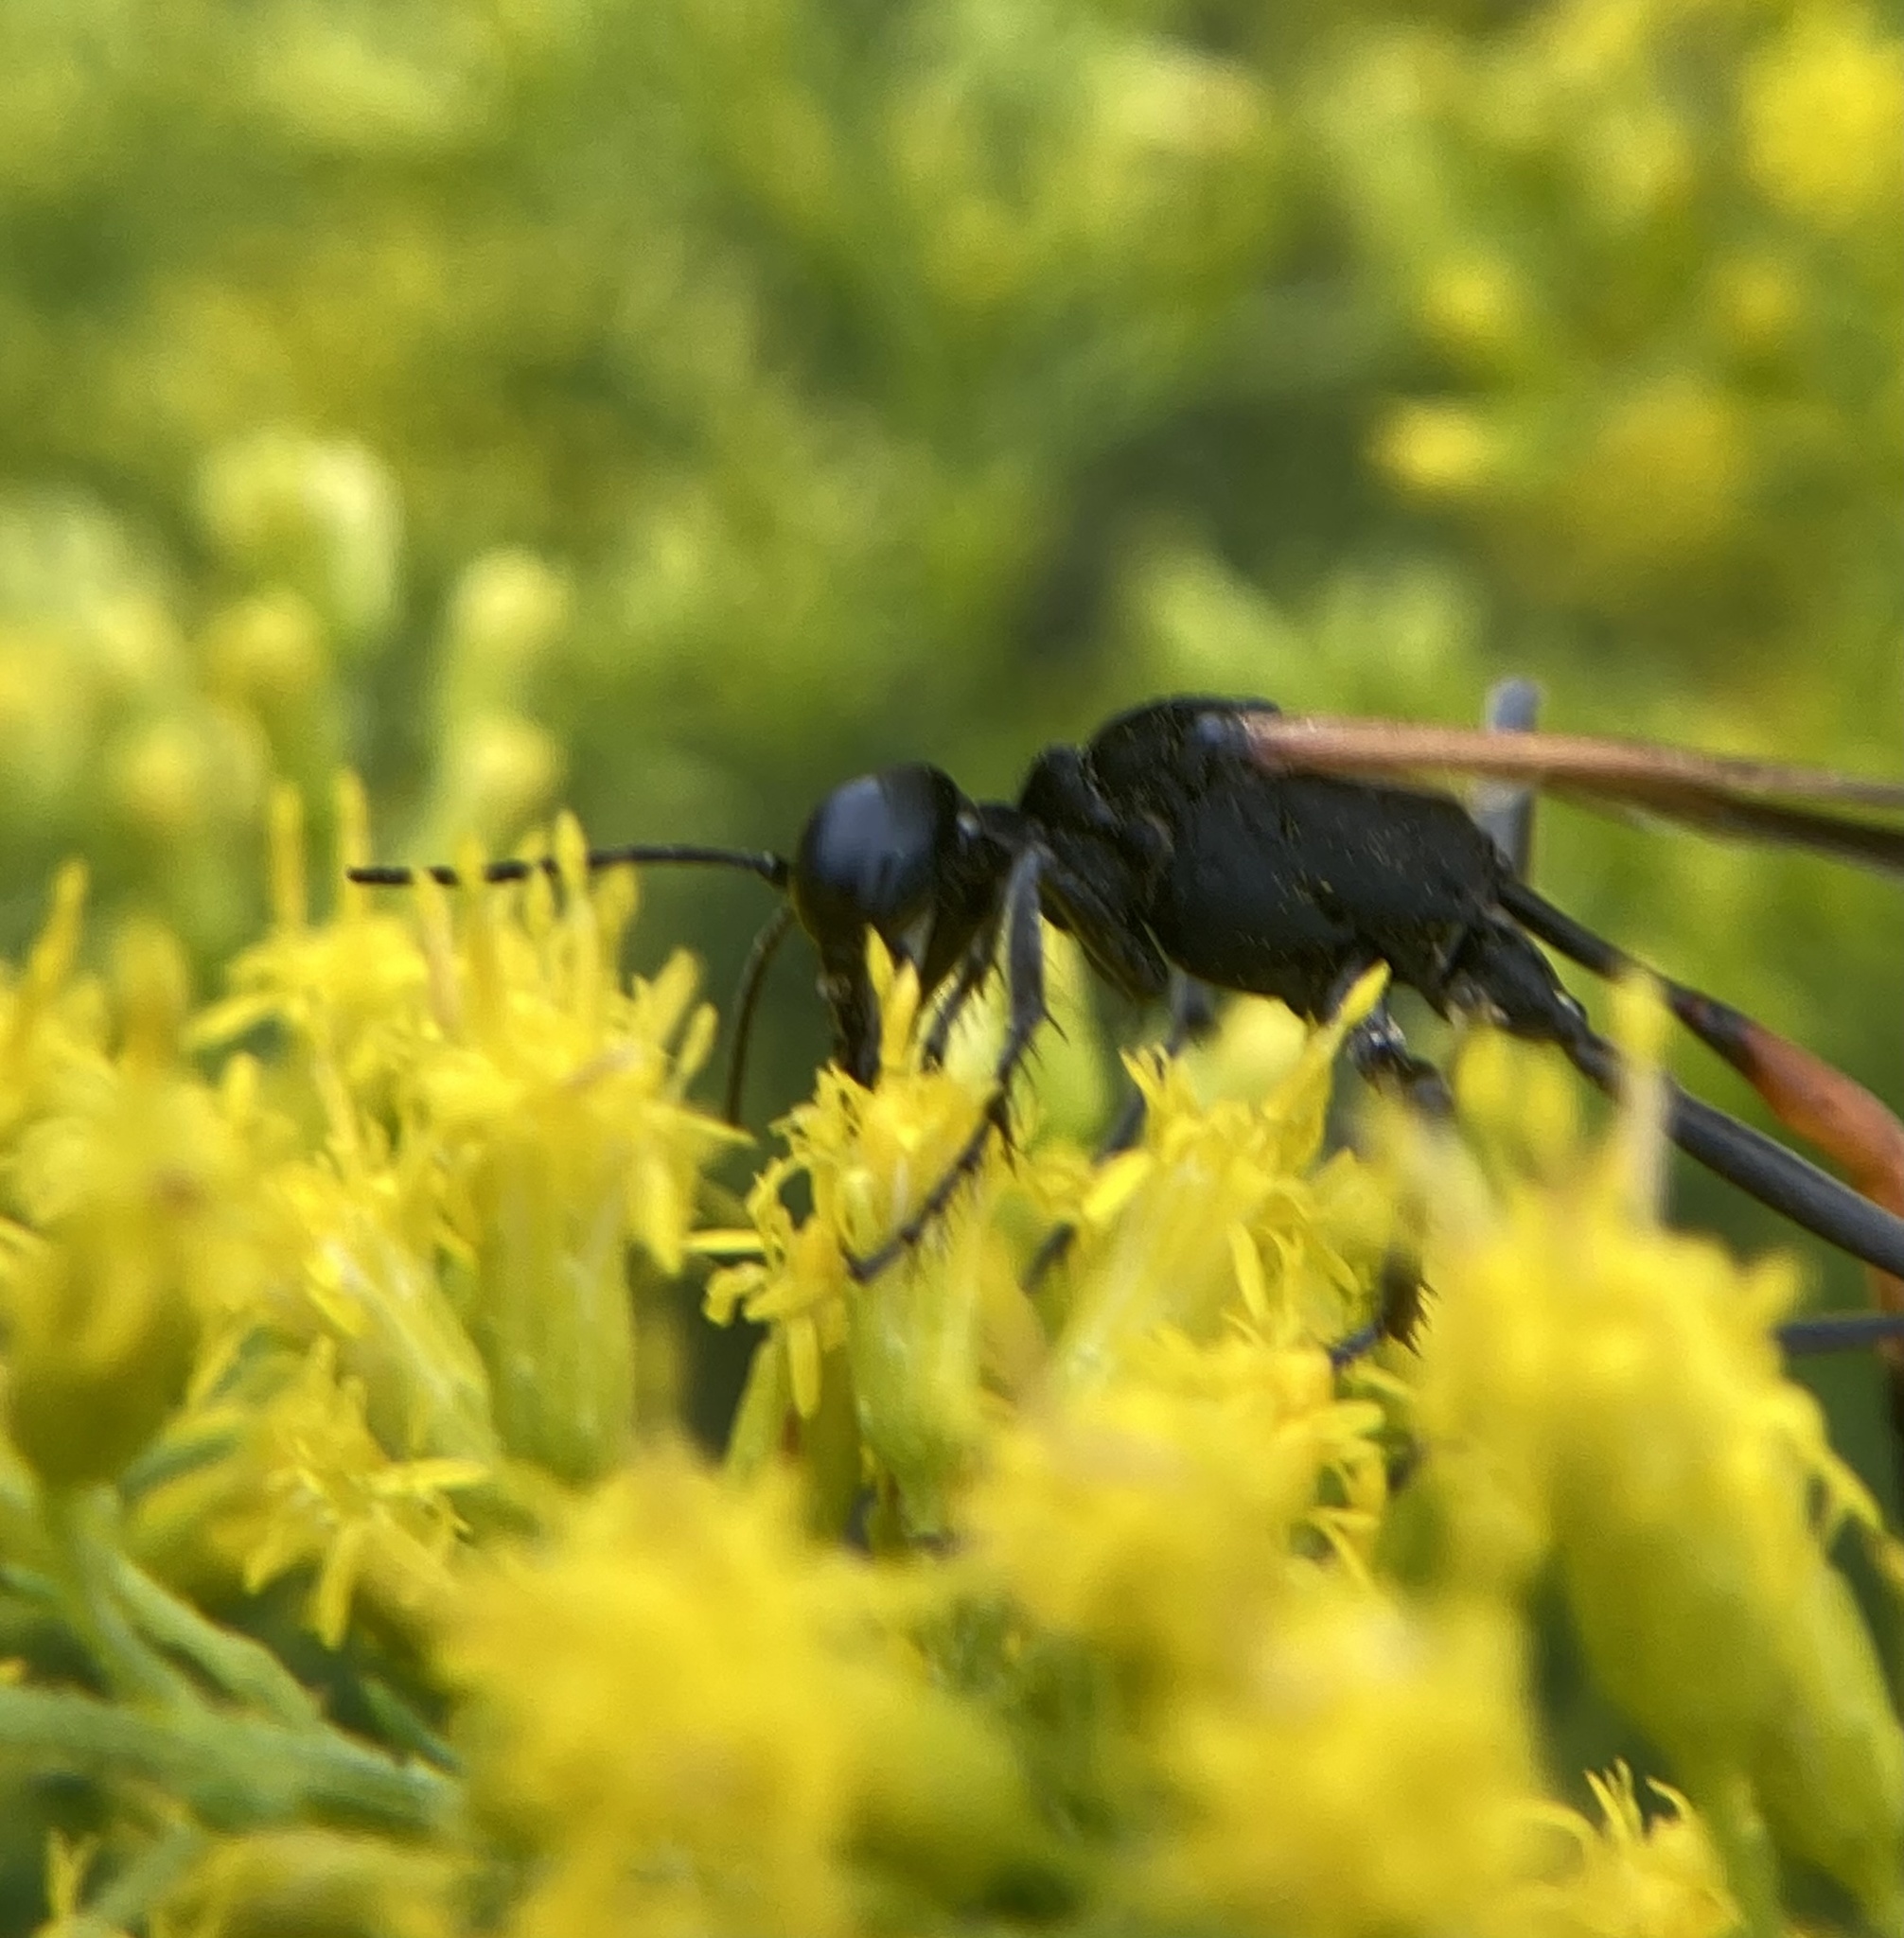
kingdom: Animalia
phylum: Arthropoda
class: Insecta
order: Hymenoptera
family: Sphecidae
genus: Ammophila
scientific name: Ammophila pictipennis
